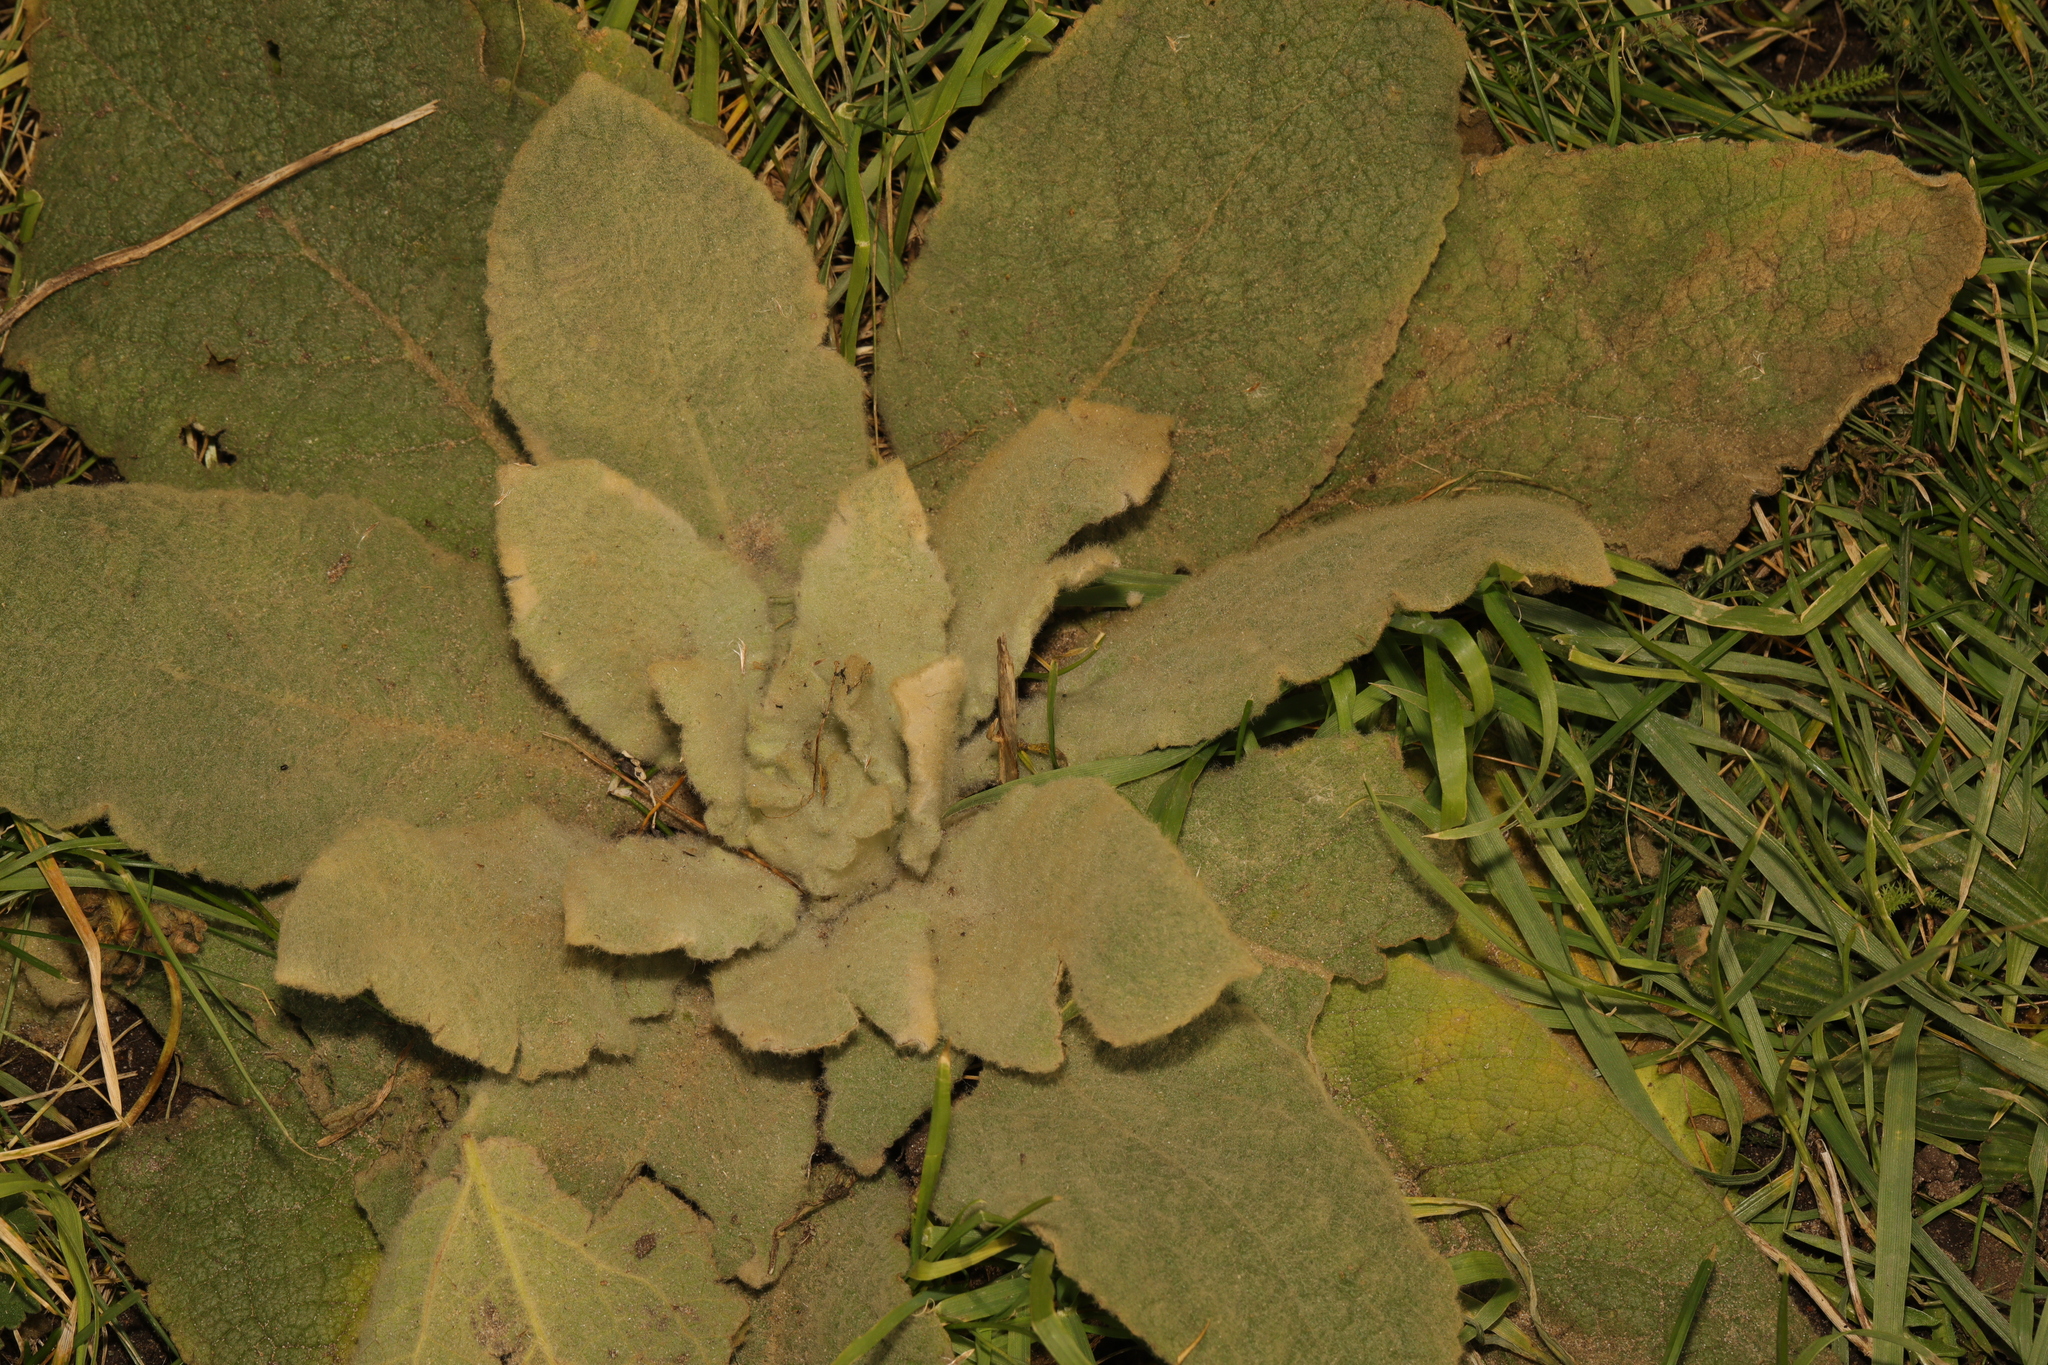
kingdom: Plantae
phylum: Tracheophyta
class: Magnoliopsida
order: Lamiales
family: Scrophulariaceae
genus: Verbascum
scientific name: Verbascum thapsus
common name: Common mullein
